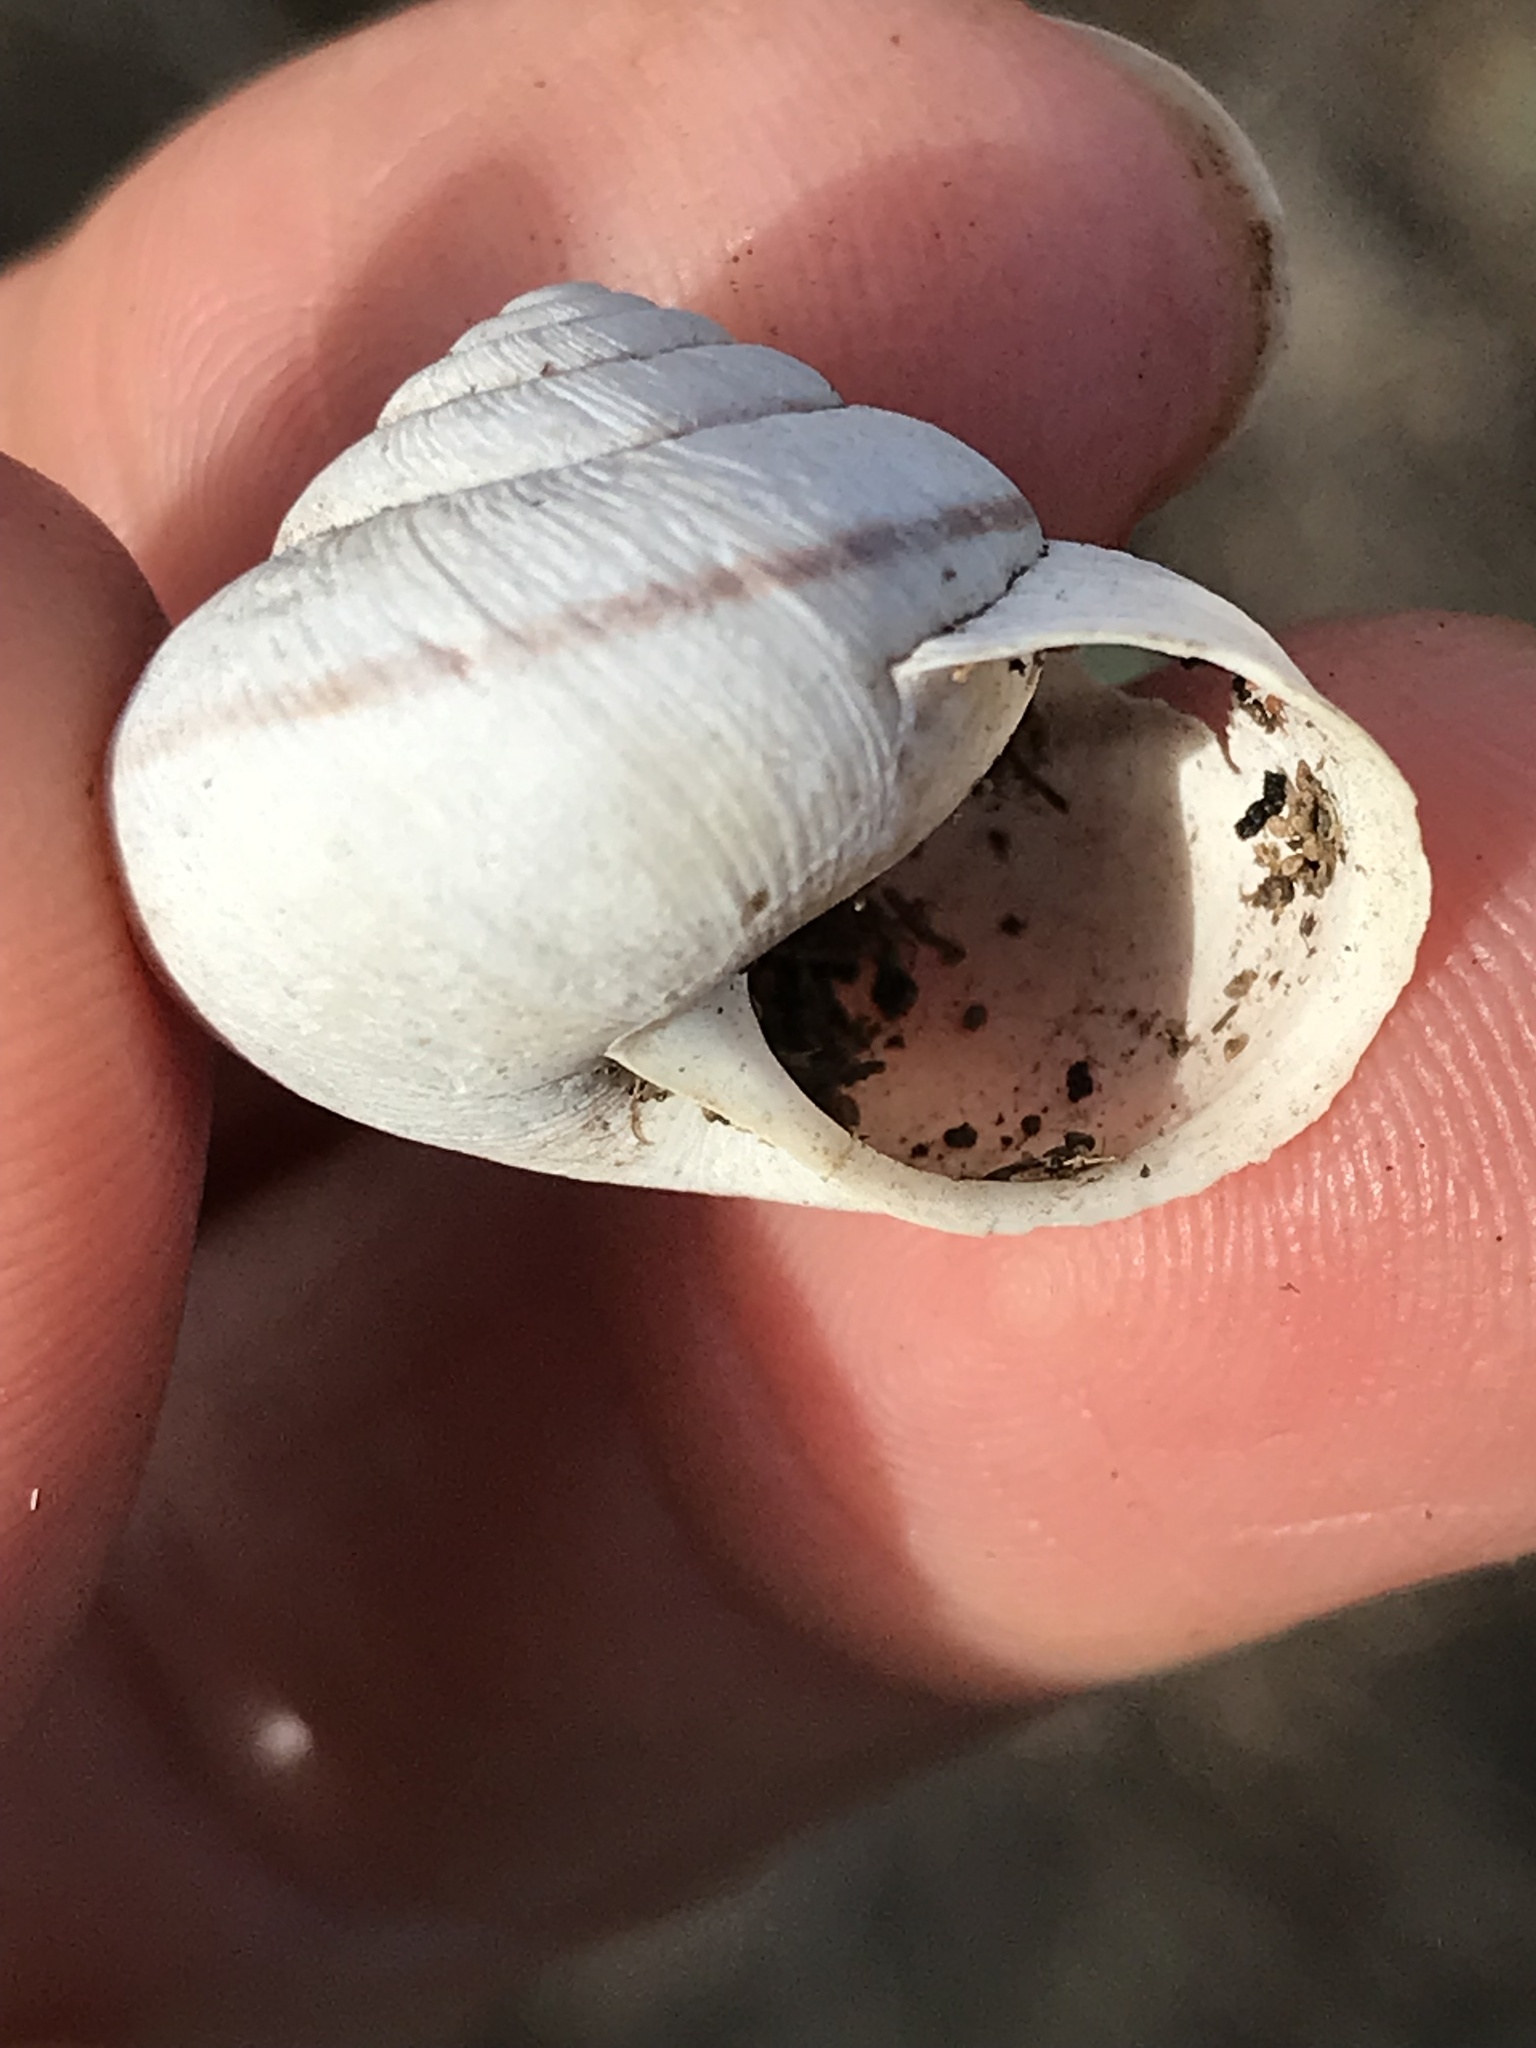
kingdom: Animalia
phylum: Mollusca
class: Gastropoda
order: Stylommatophora
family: Xanthonychidae
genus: Helminthoglypta
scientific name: Helminthoglypta stiversiana
